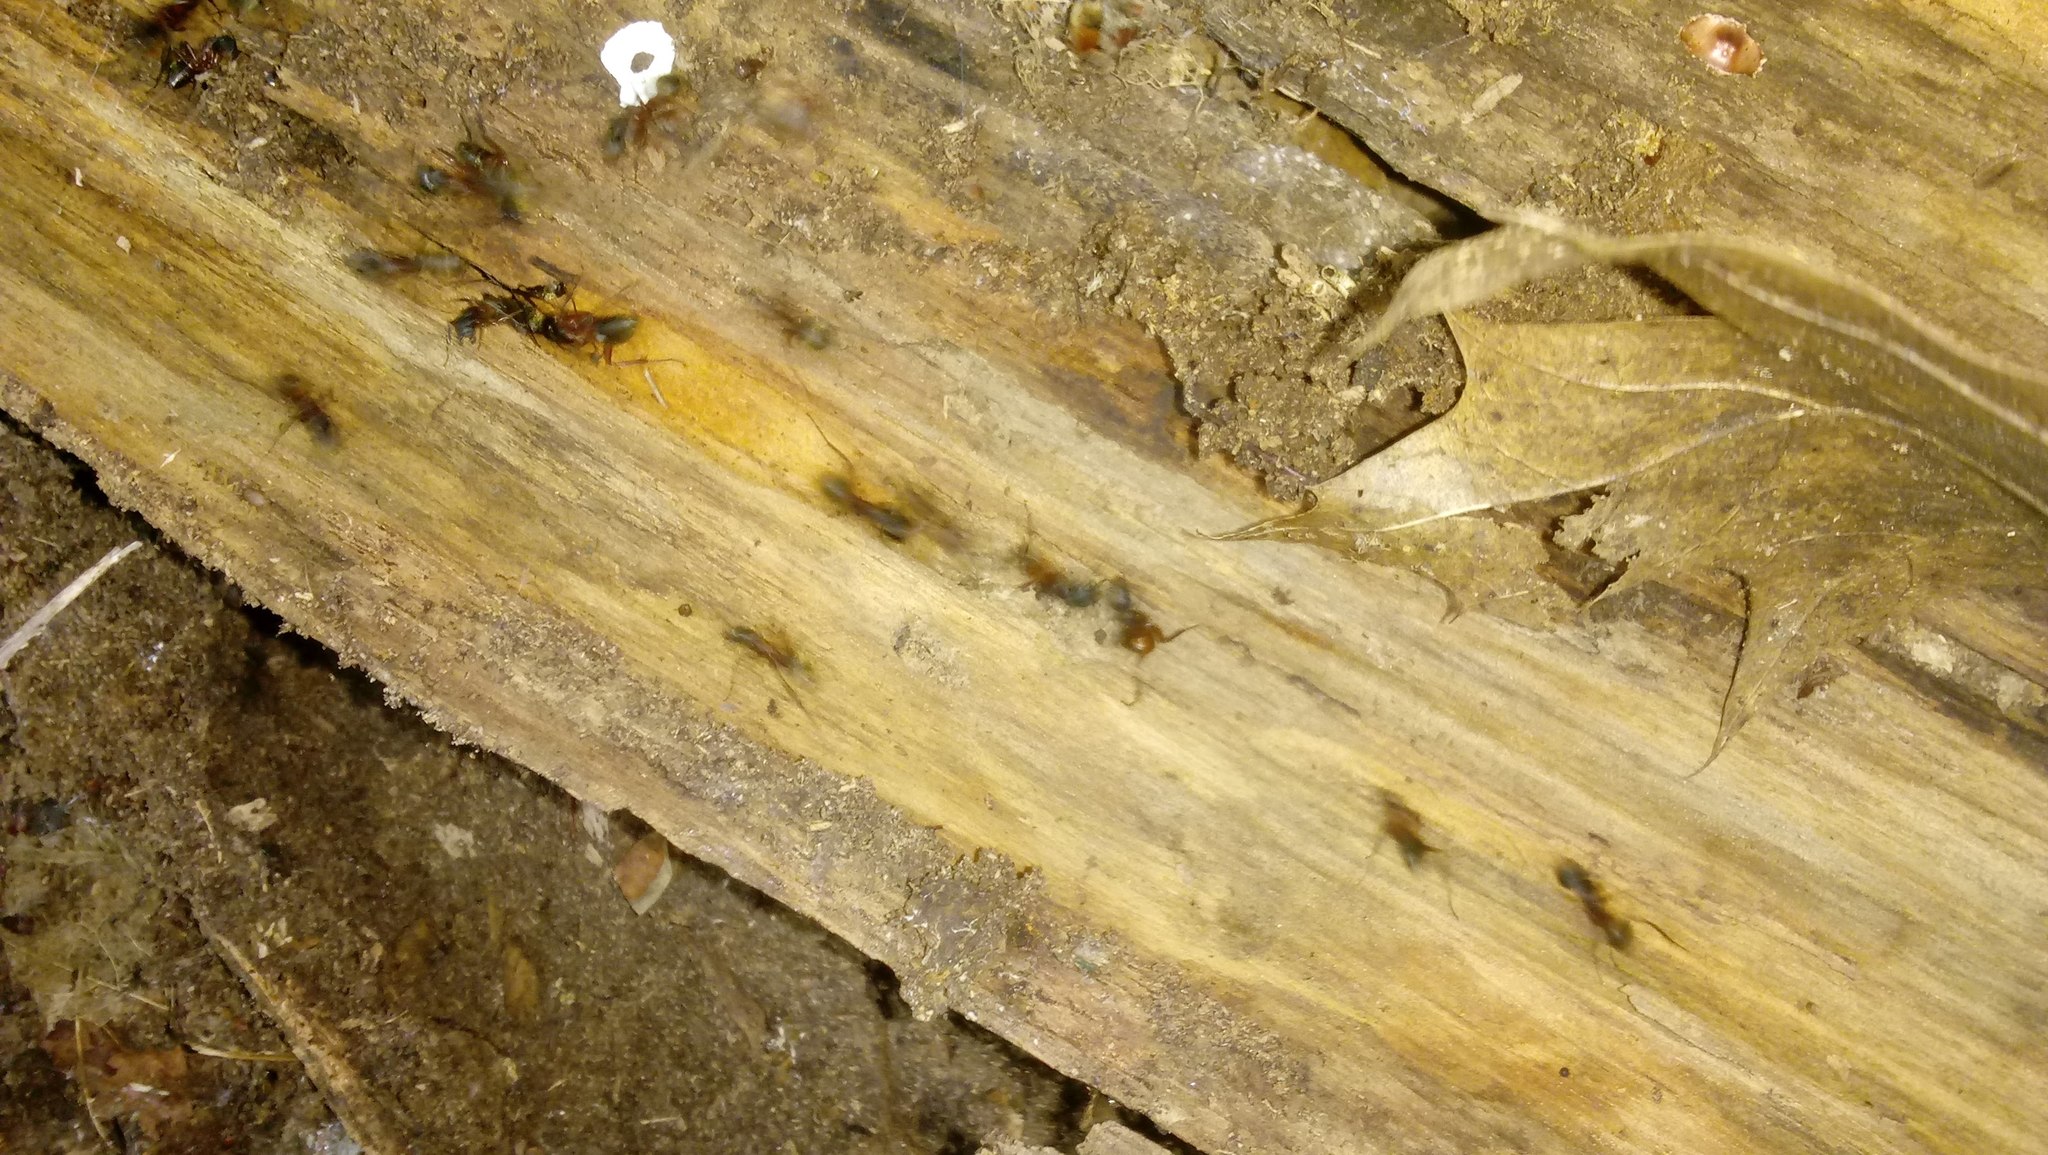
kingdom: Animalia
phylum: Arthropoda
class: Insecta
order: Hymenoptera
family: Formicidae
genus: Camponotus
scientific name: Camponotus chromaiodes
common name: Red carpenter ant
